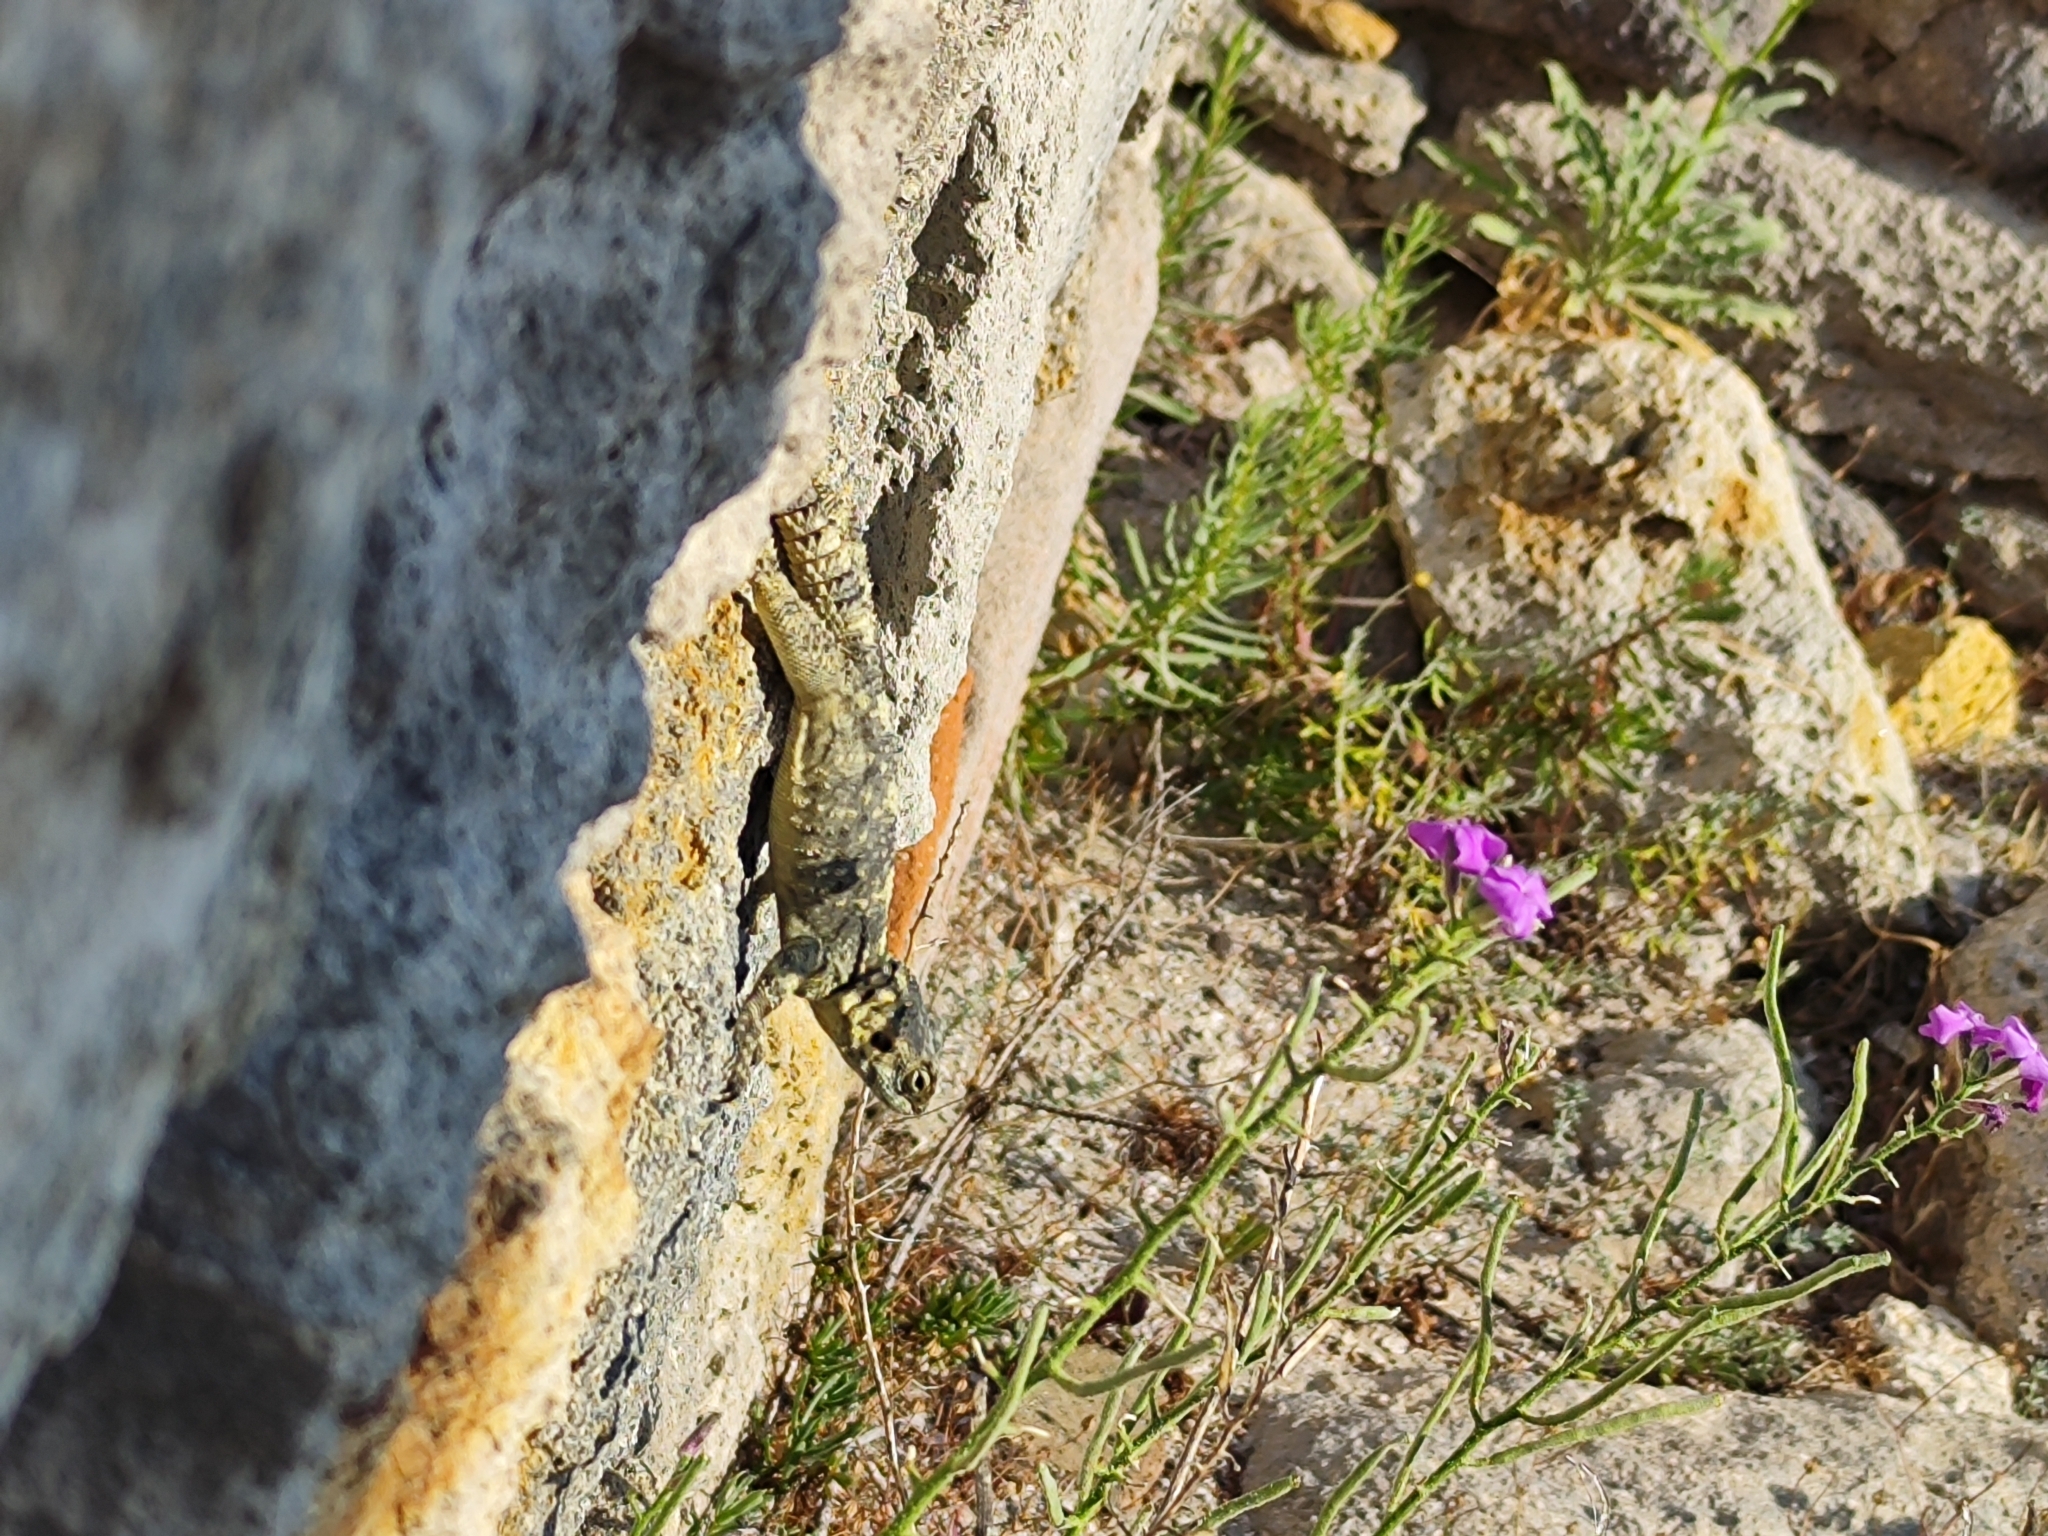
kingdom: Animalia
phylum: Chordata
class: Squamata
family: Agamidae
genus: Stellagama
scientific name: Stellagama stellio
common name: Starred agama
